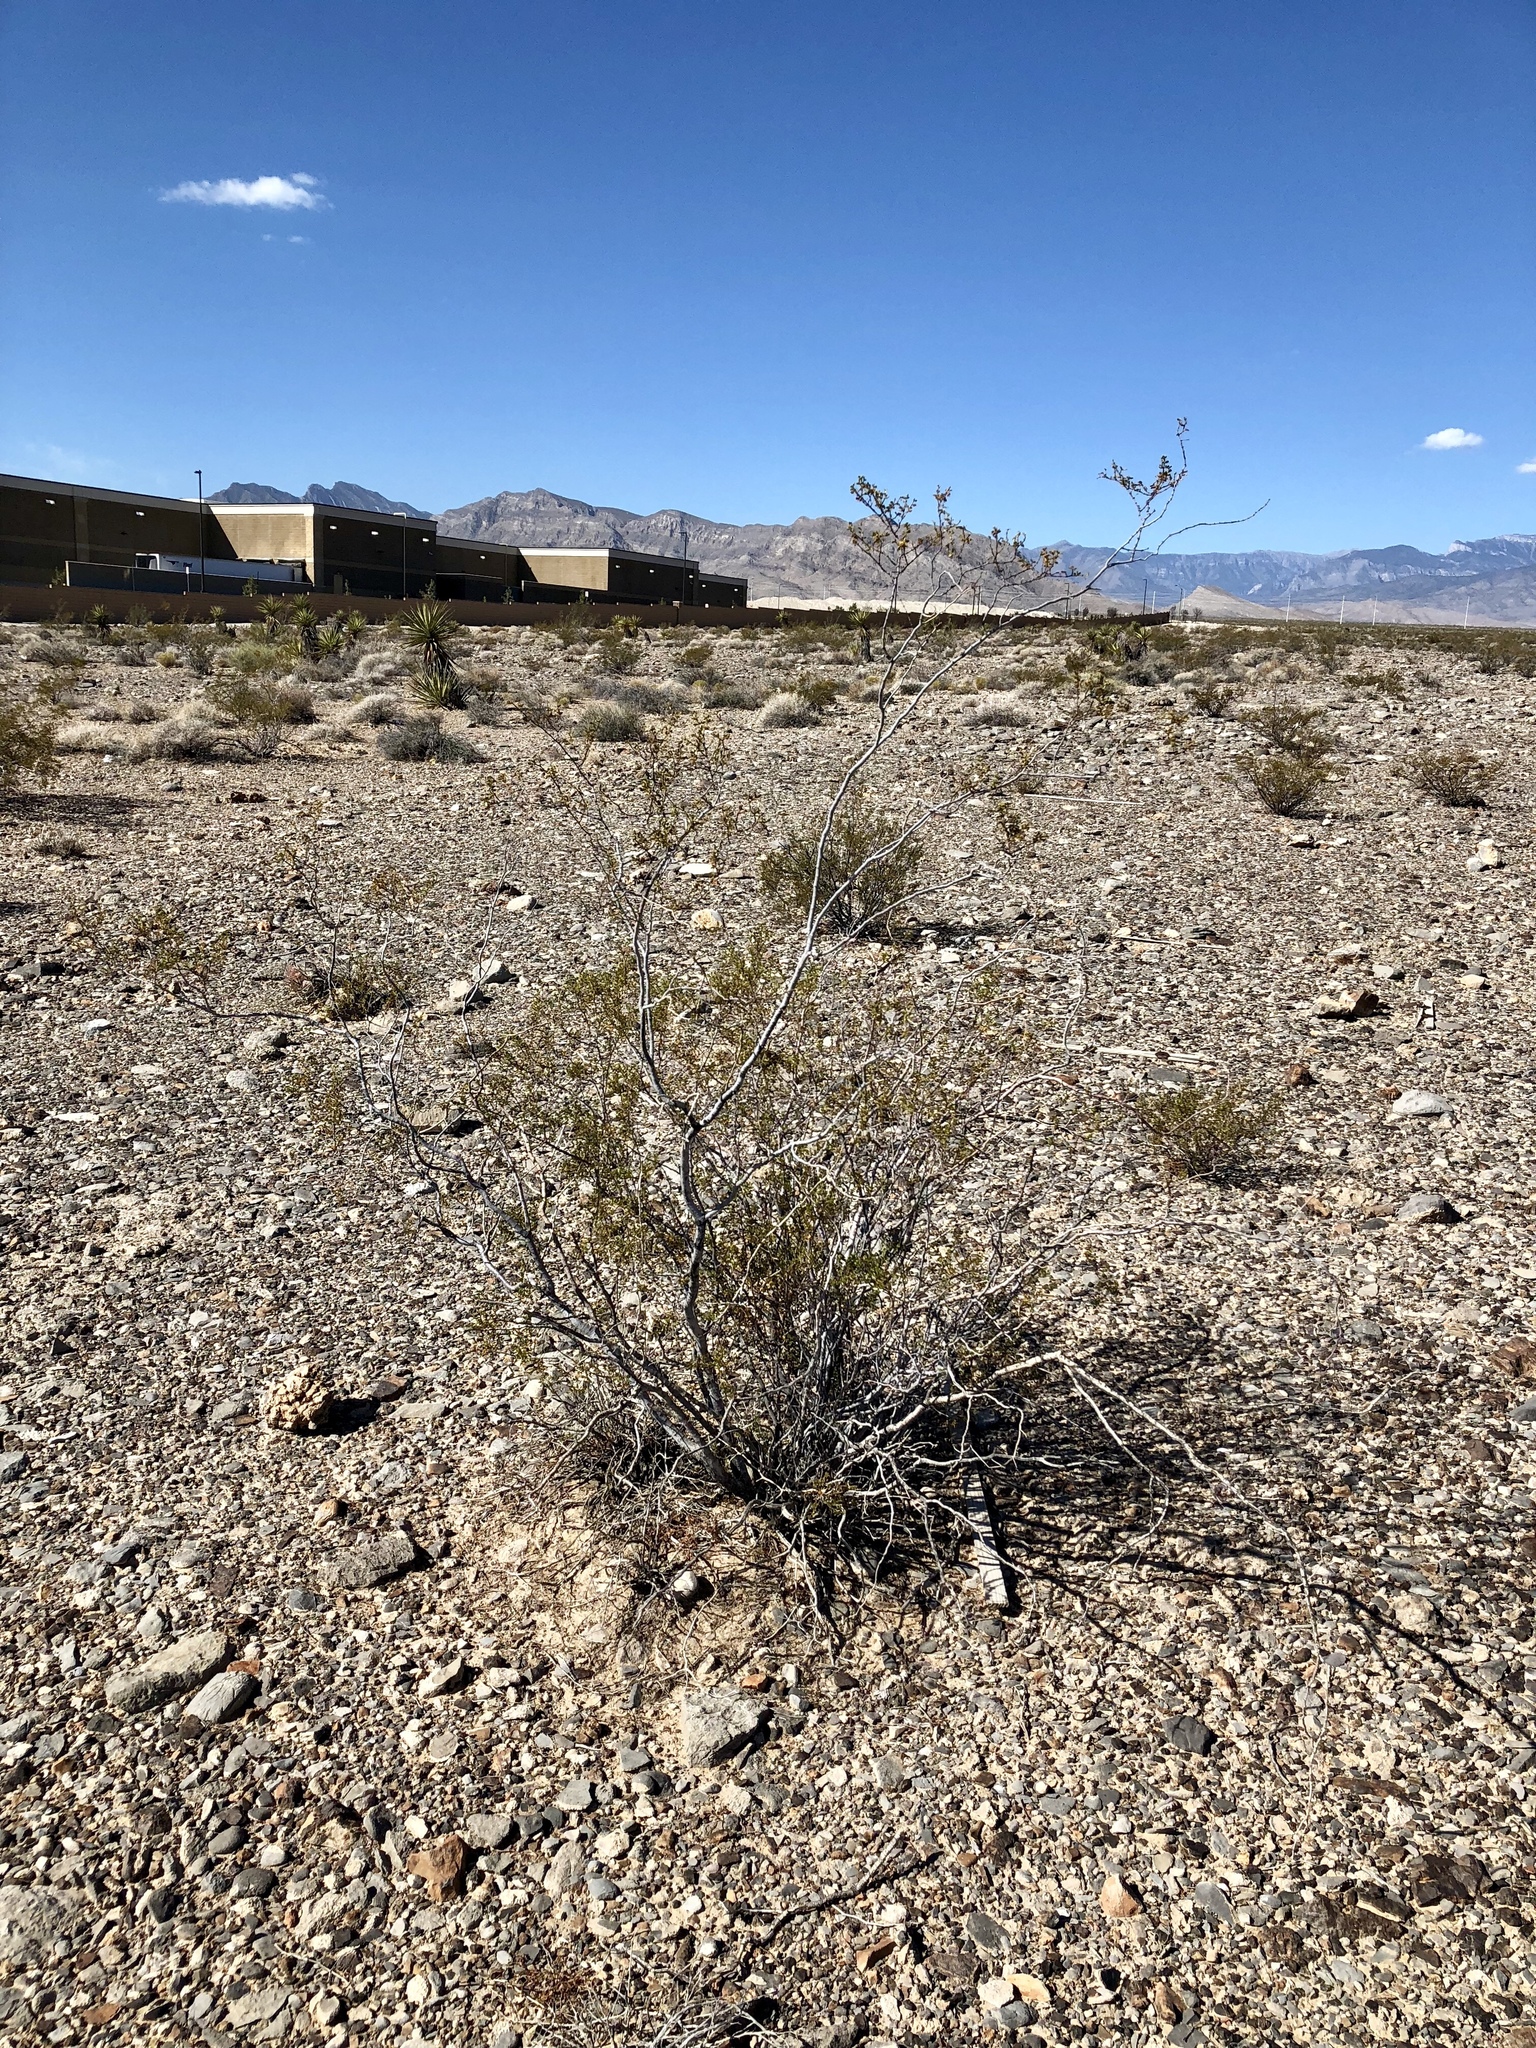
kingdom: Plantae
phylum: Tracheophyta
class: Magnoliopsida
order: Zygophyllales
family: Zygophyllaceae
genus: Larrea
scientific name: Larrea tridentata
